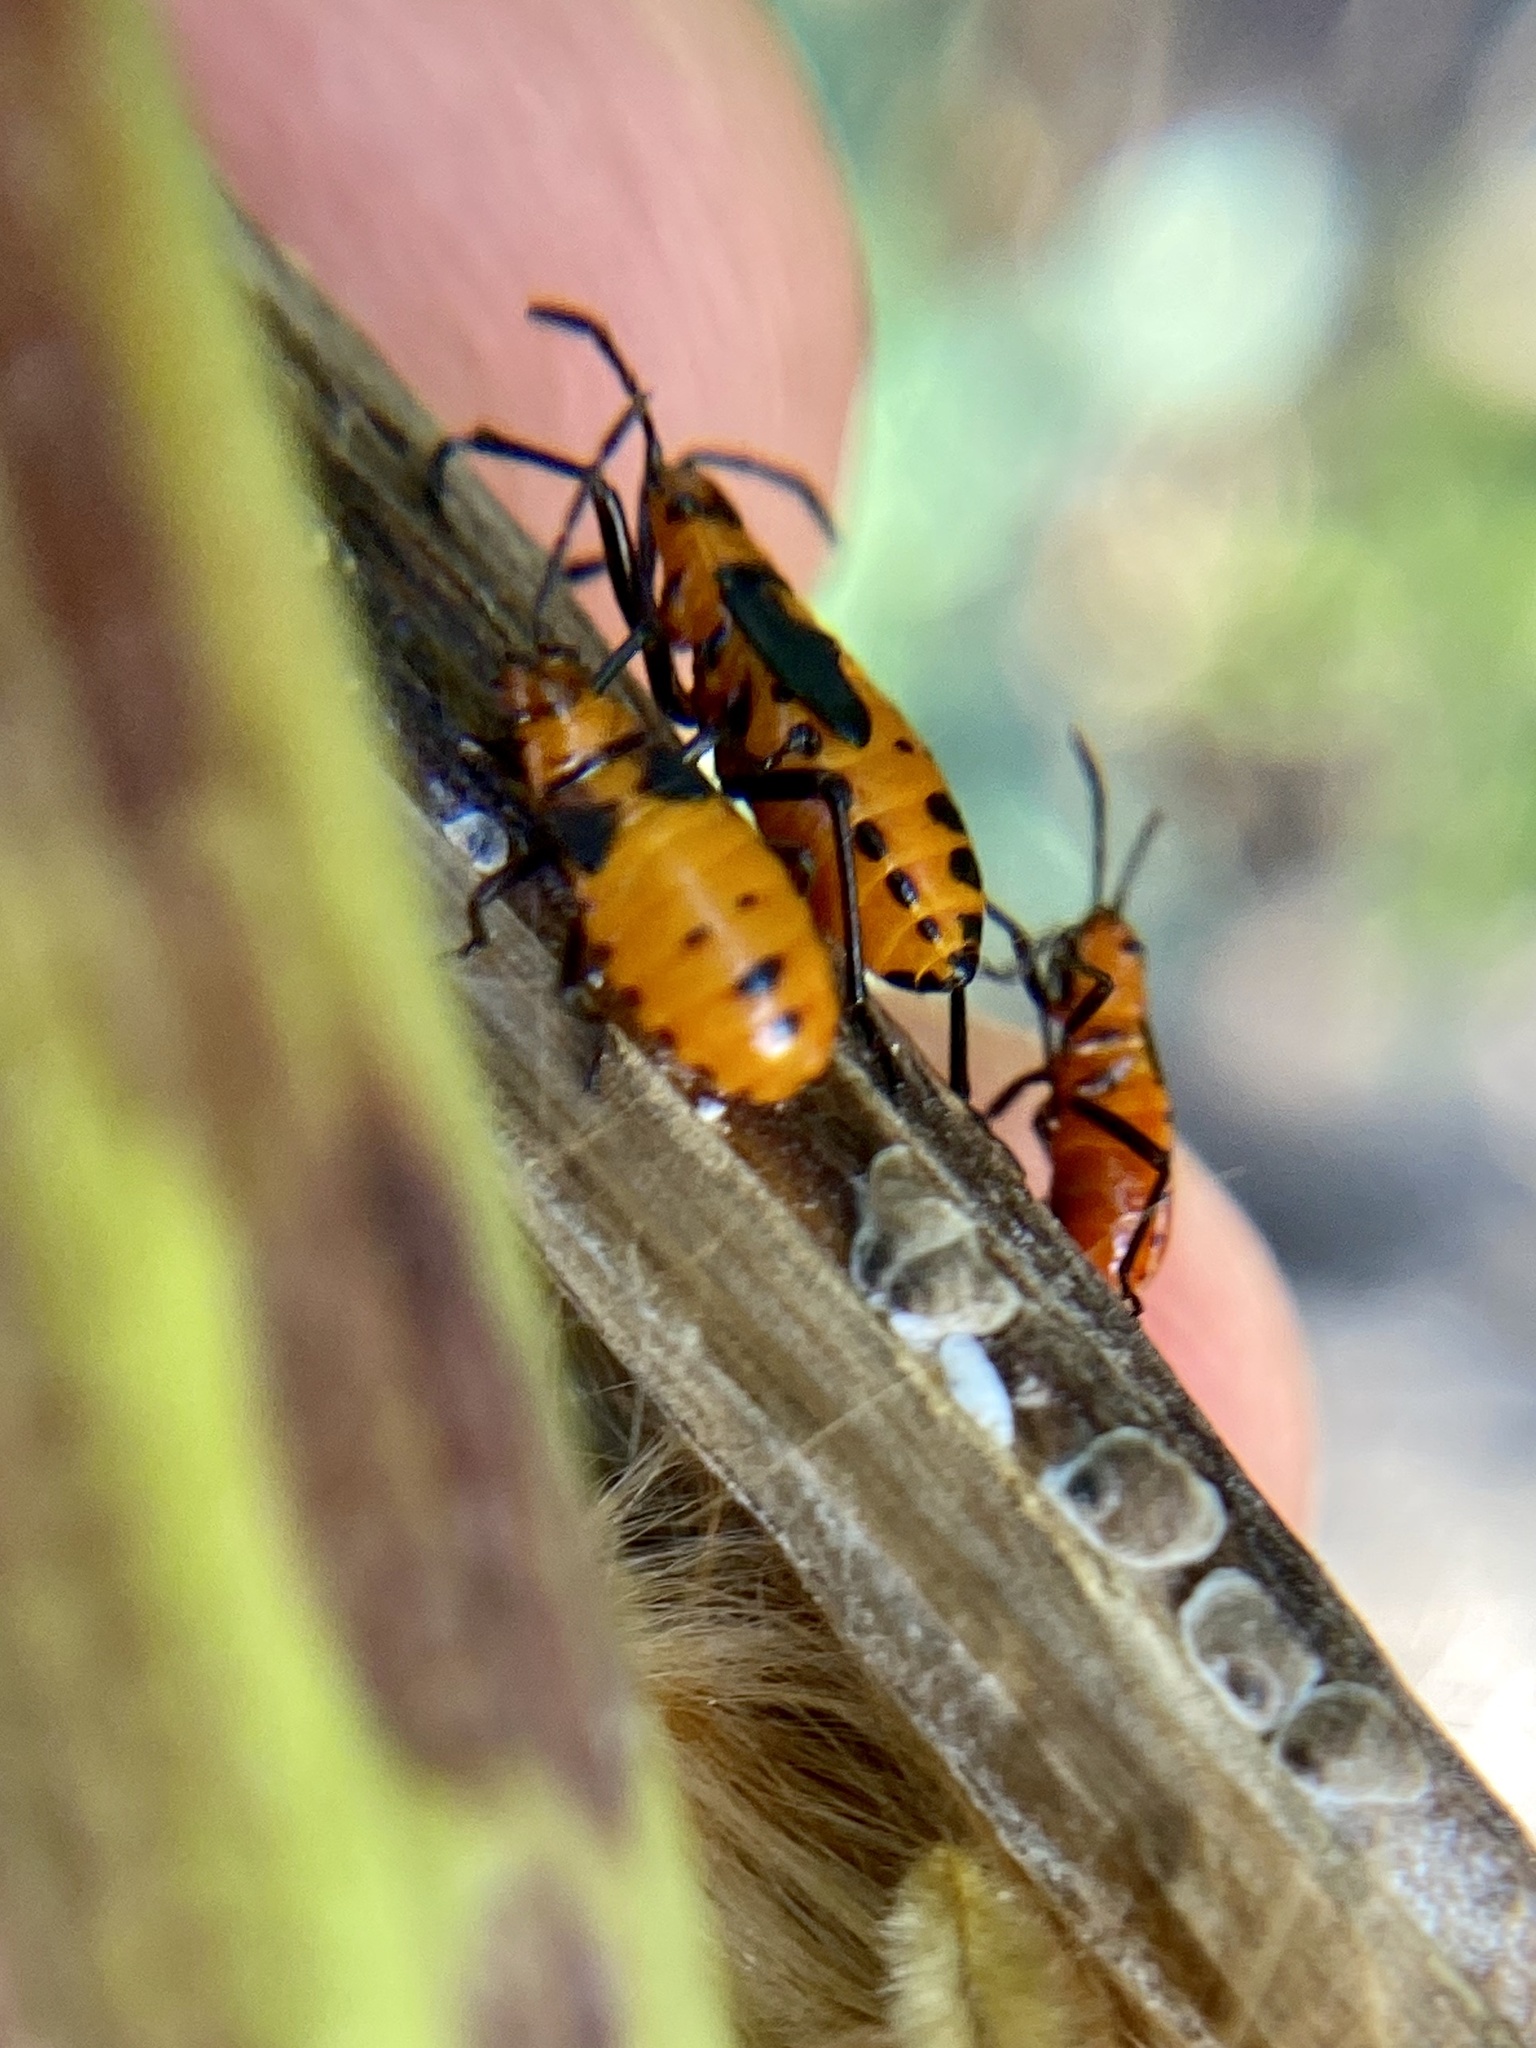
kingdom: Animalia
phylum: Arthropoda
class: Insecta
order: Hemiptera
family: Lygaeidae
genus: Oncopeltus
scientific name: Oncopeltus aulicus
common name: Lygaeid bug
